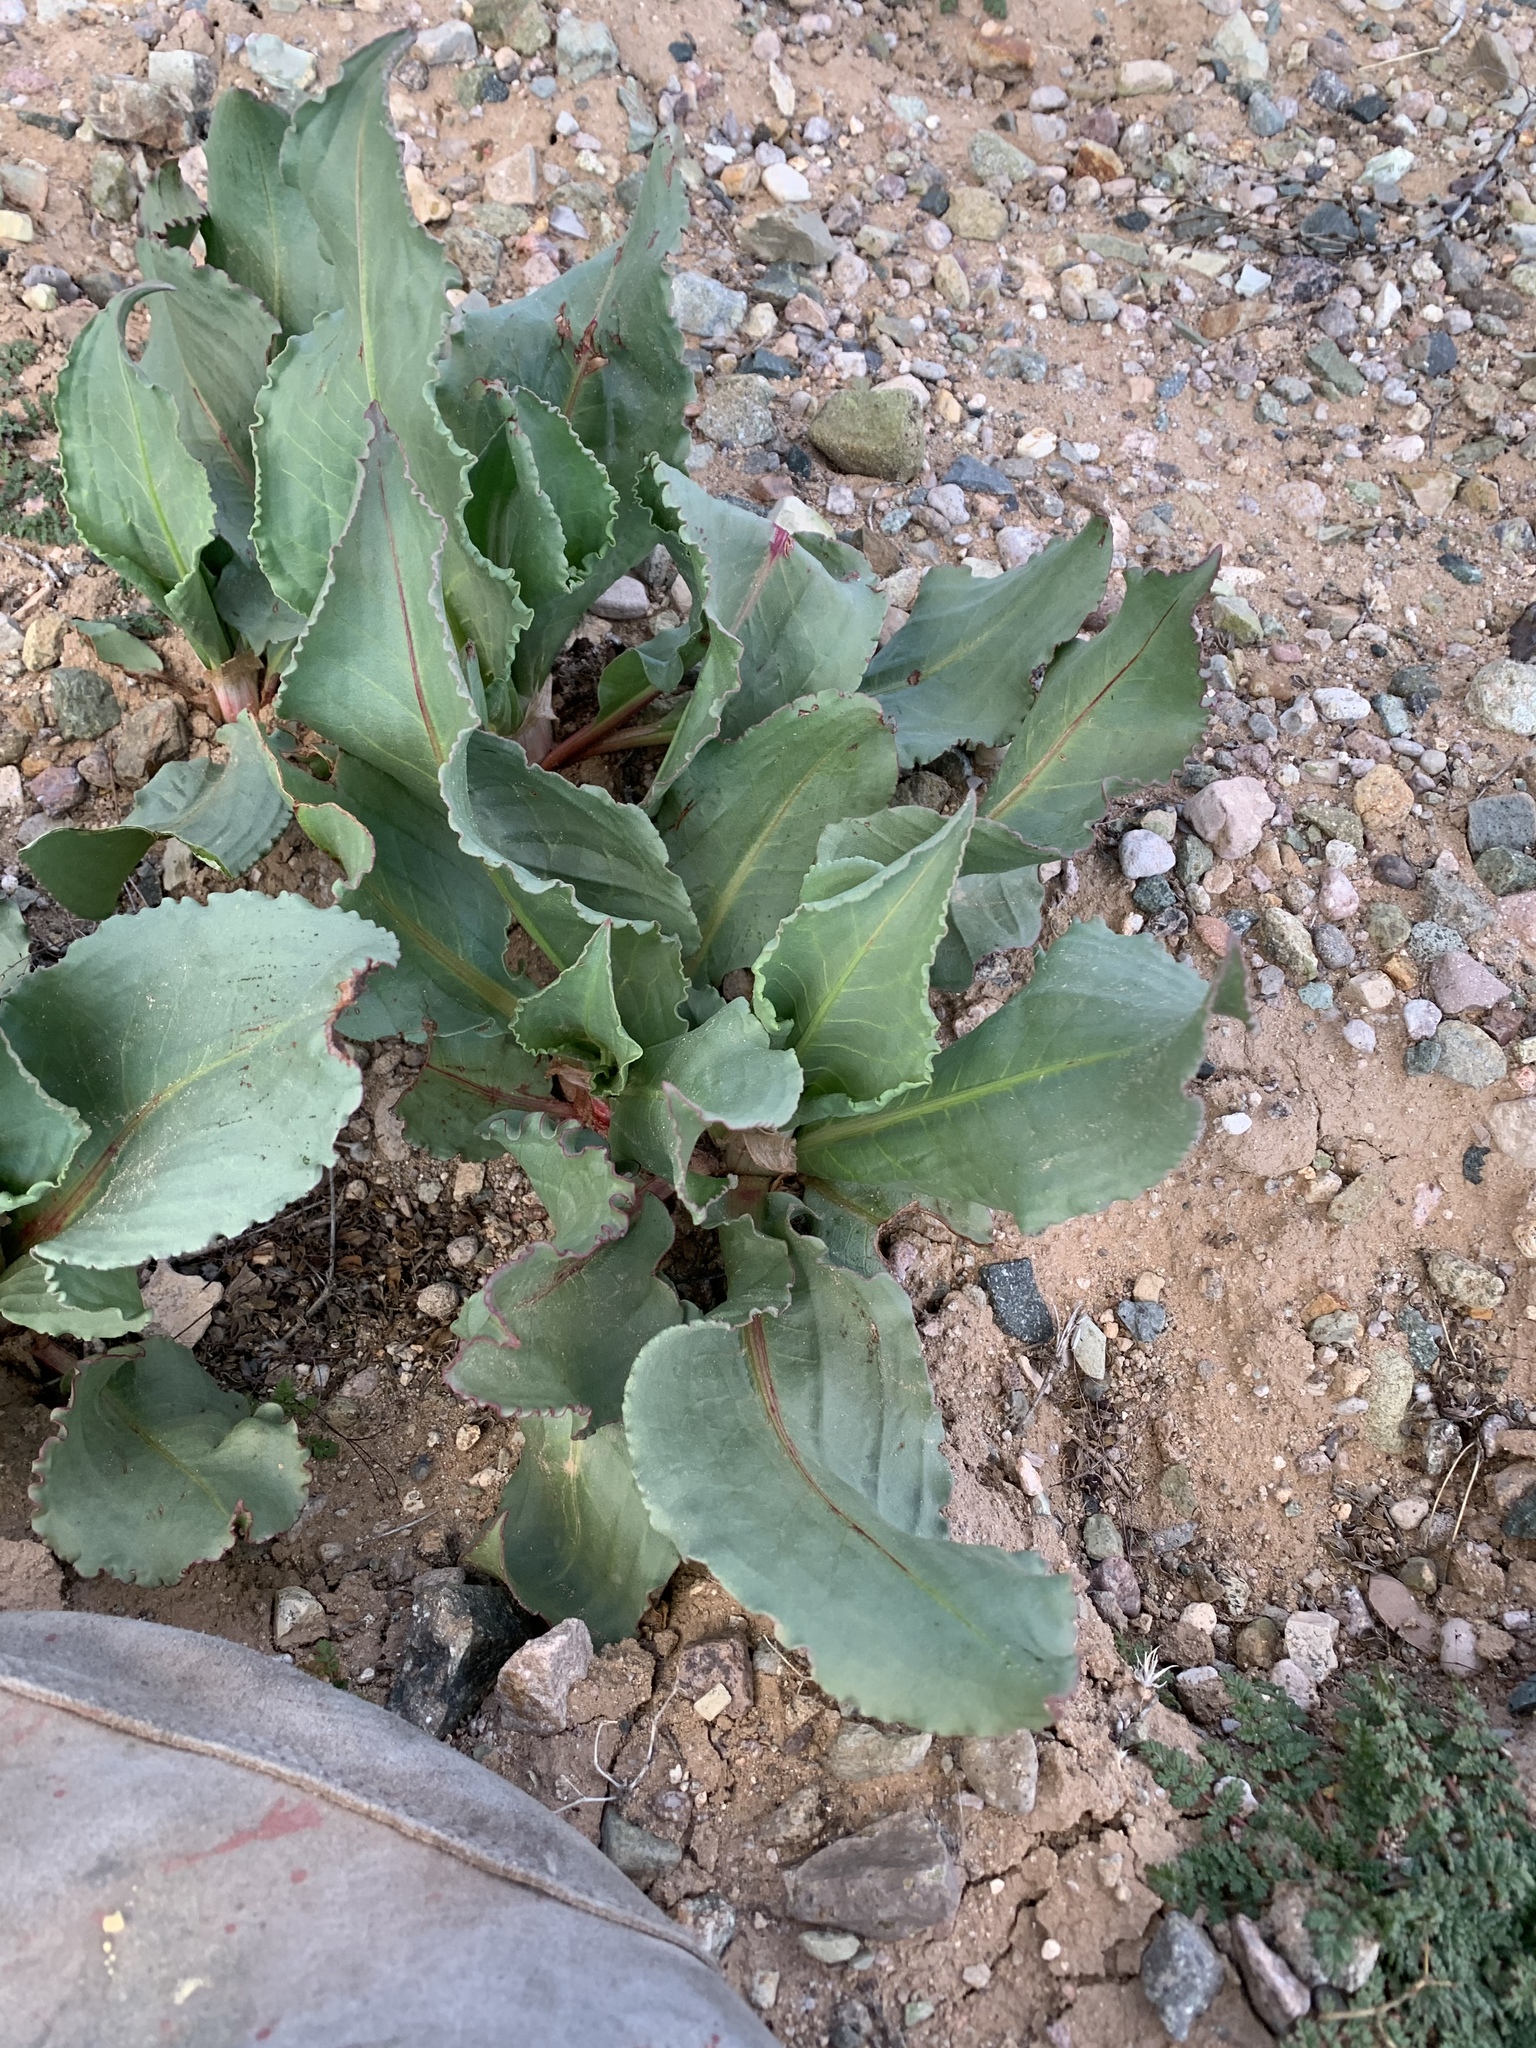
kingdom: Plantae
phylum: Tracheophyta
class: Magnoliopsida
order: Caryophyllales
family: Polygonaceae
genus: Rumex
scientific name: Rumex hymenosepalus
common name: Ganagra
